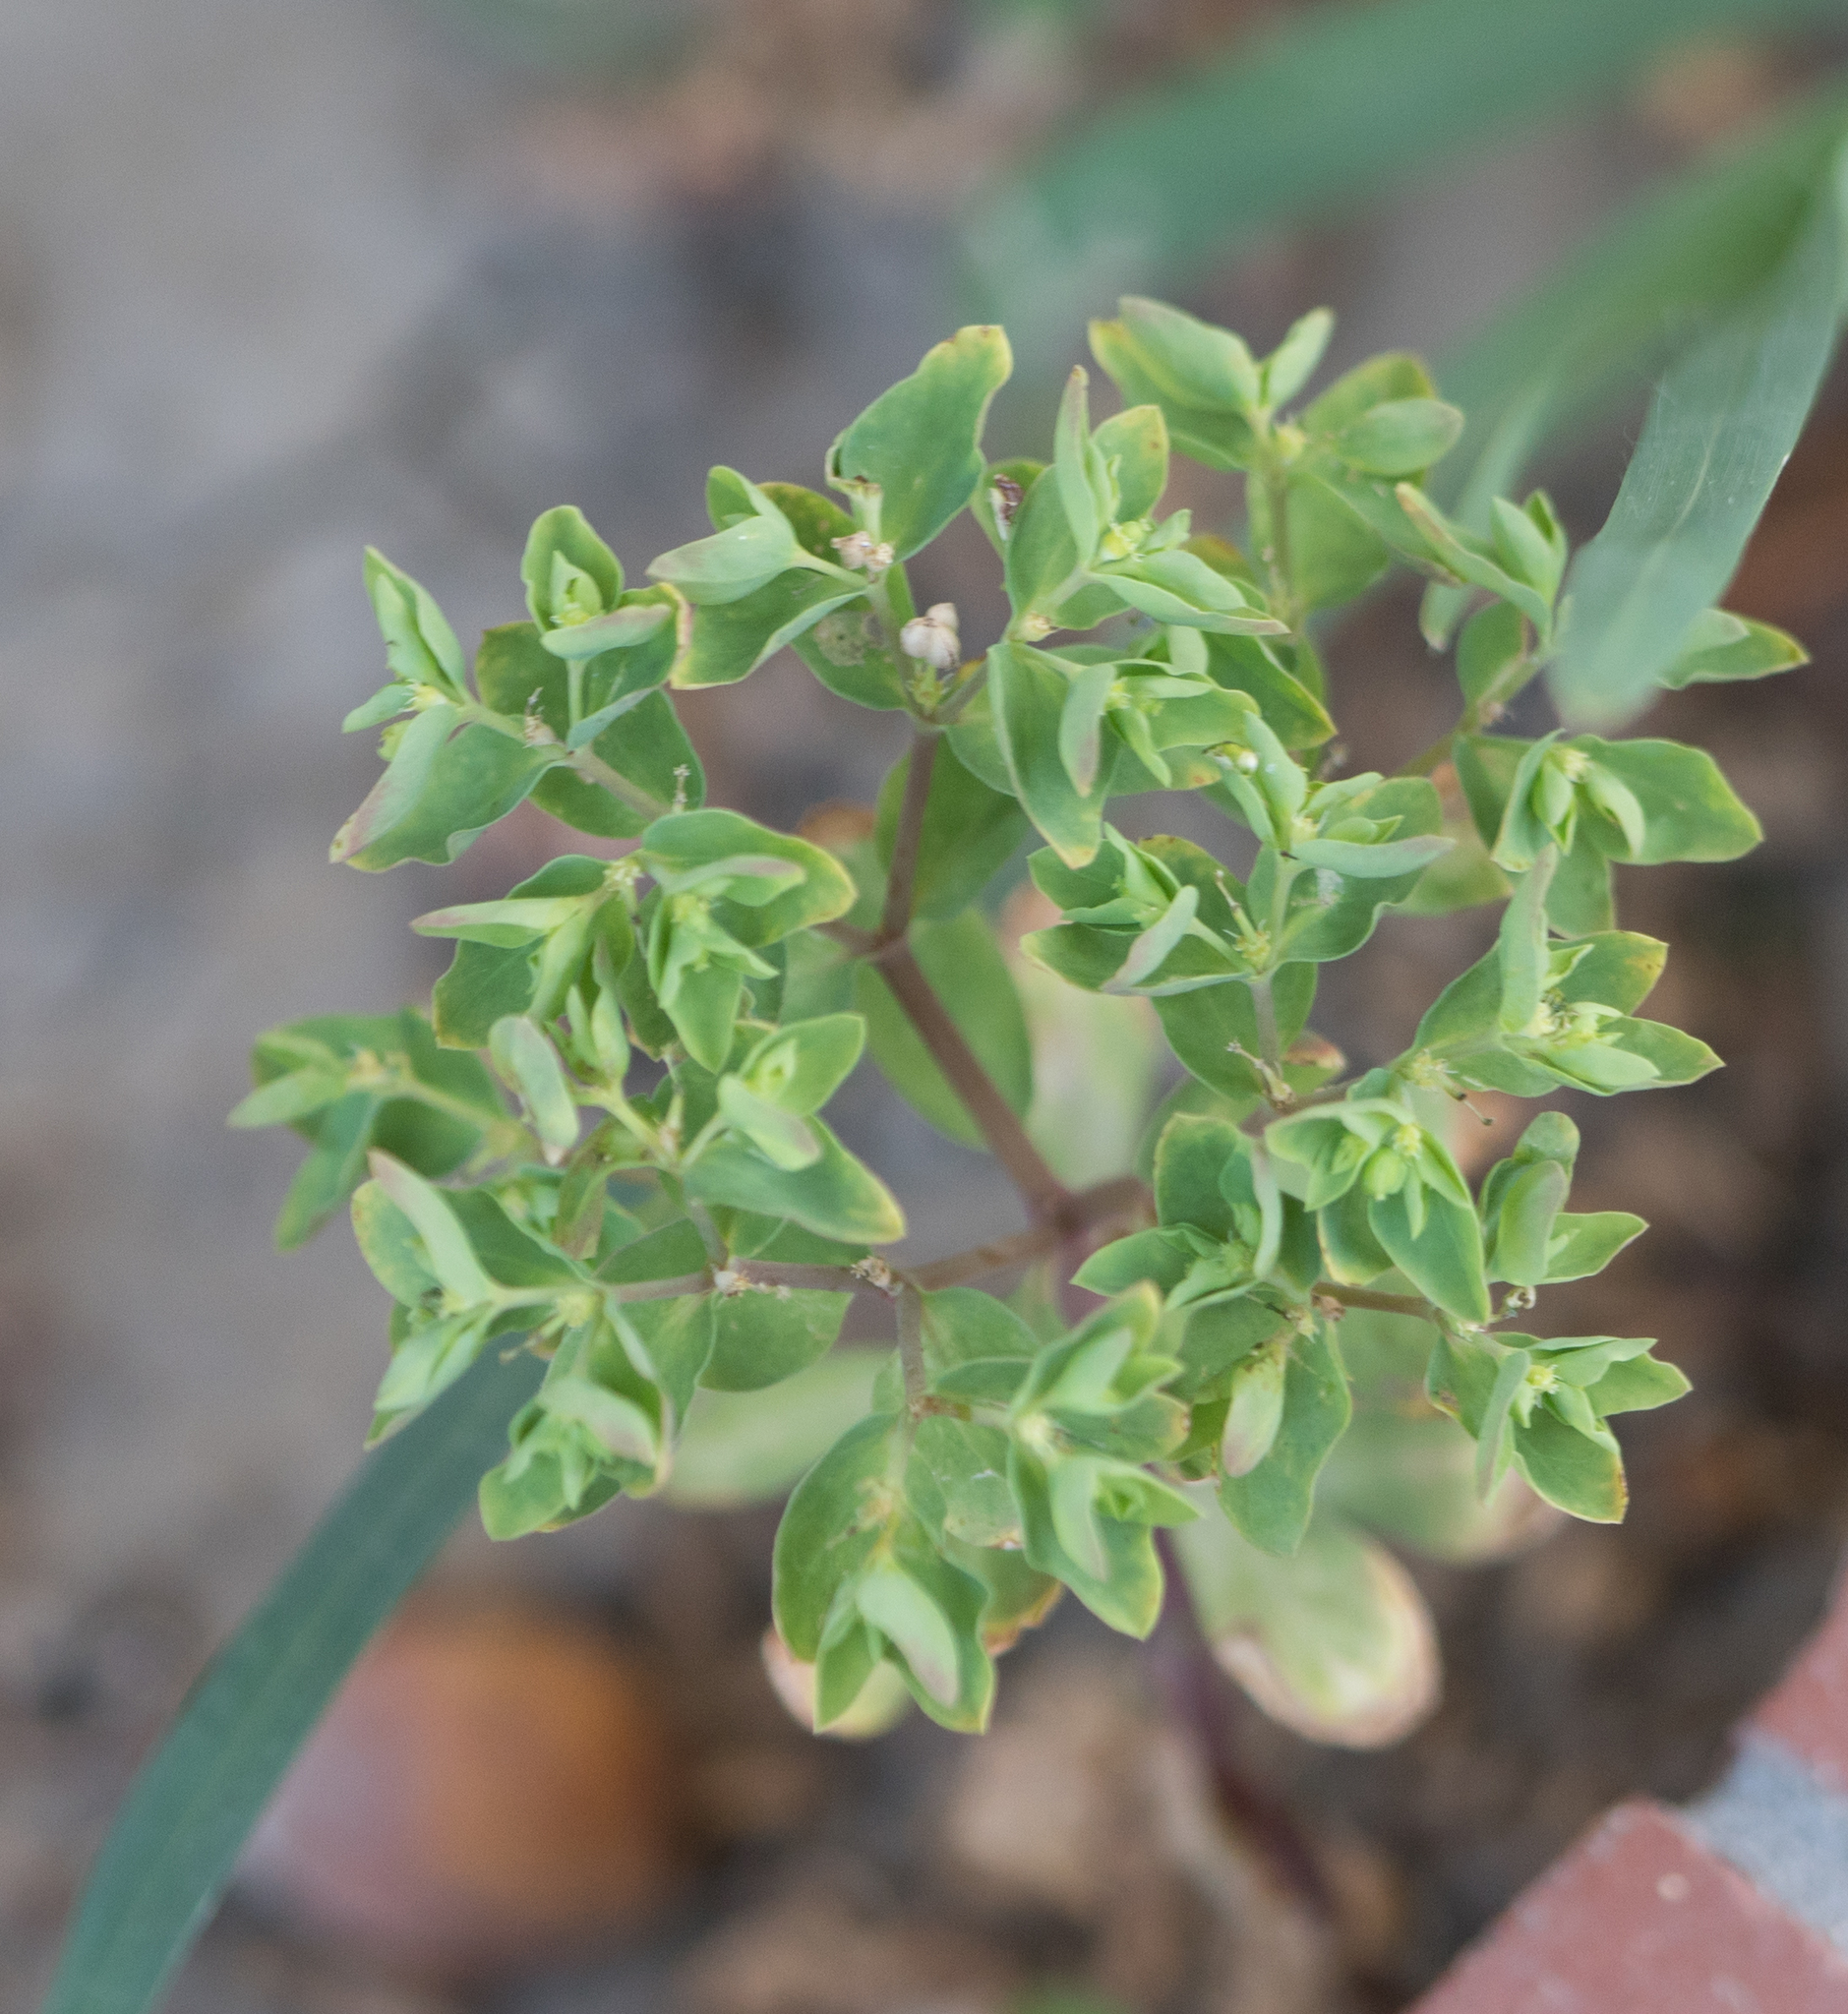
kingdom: Plantae
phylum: Tracheophyta
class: Magnoliopsida
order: Malpighiales
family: Euphorbiaceae
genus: Euphorbia
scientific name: Euphorbia peplus
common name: Petty spurge
